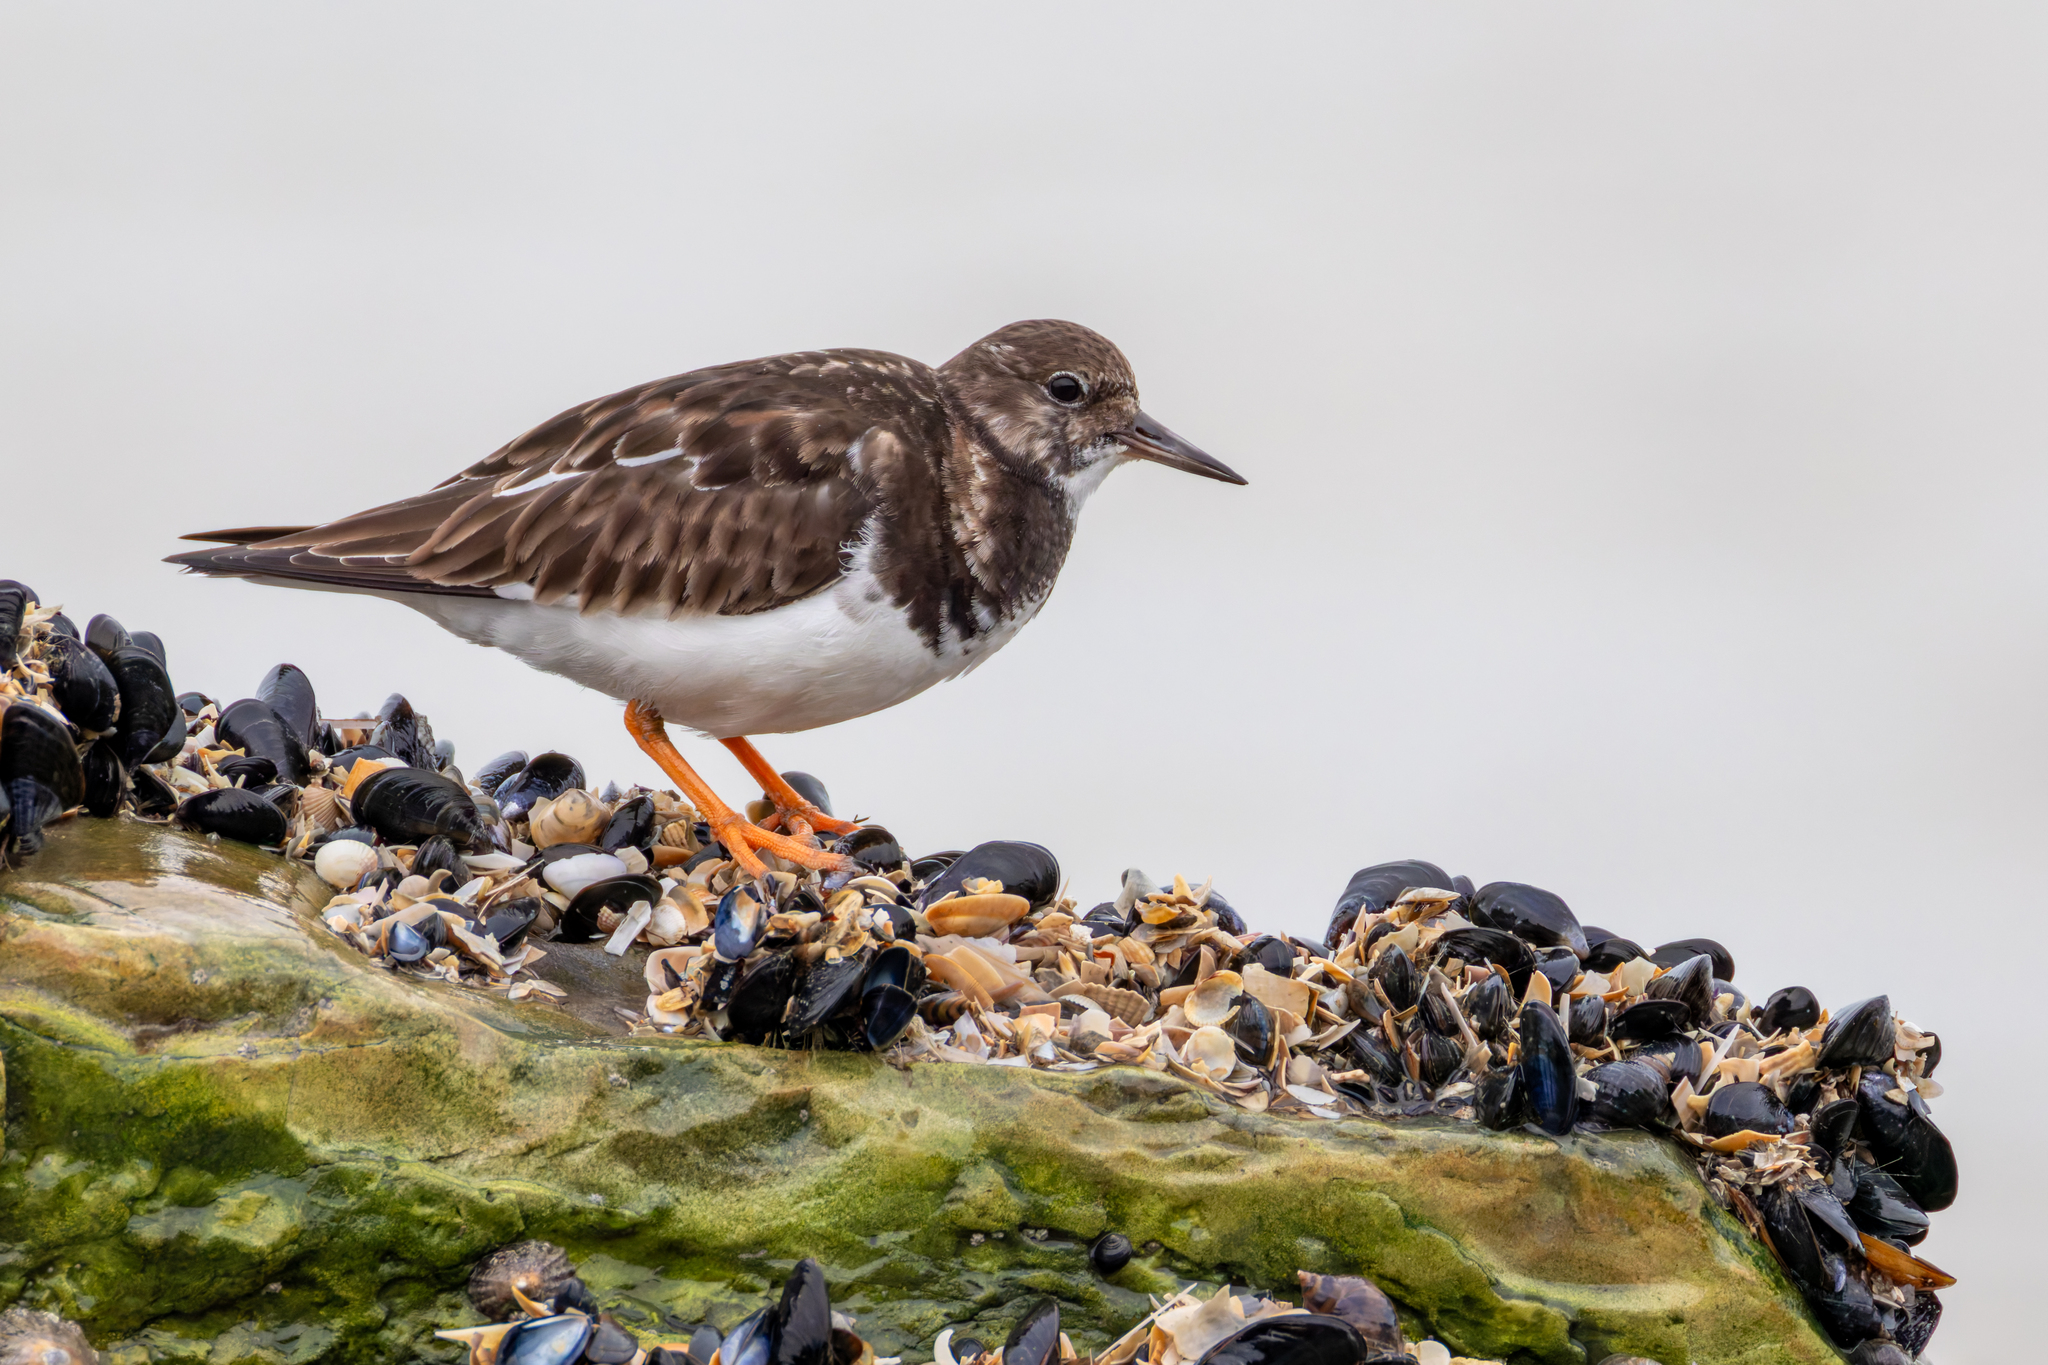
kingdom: Animalia
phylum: Chordata
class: Aves
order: Charadriiformes
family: Scolopacidae
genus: Arenaria
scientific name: Arenaria interpres
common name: Ruddy turnstone
